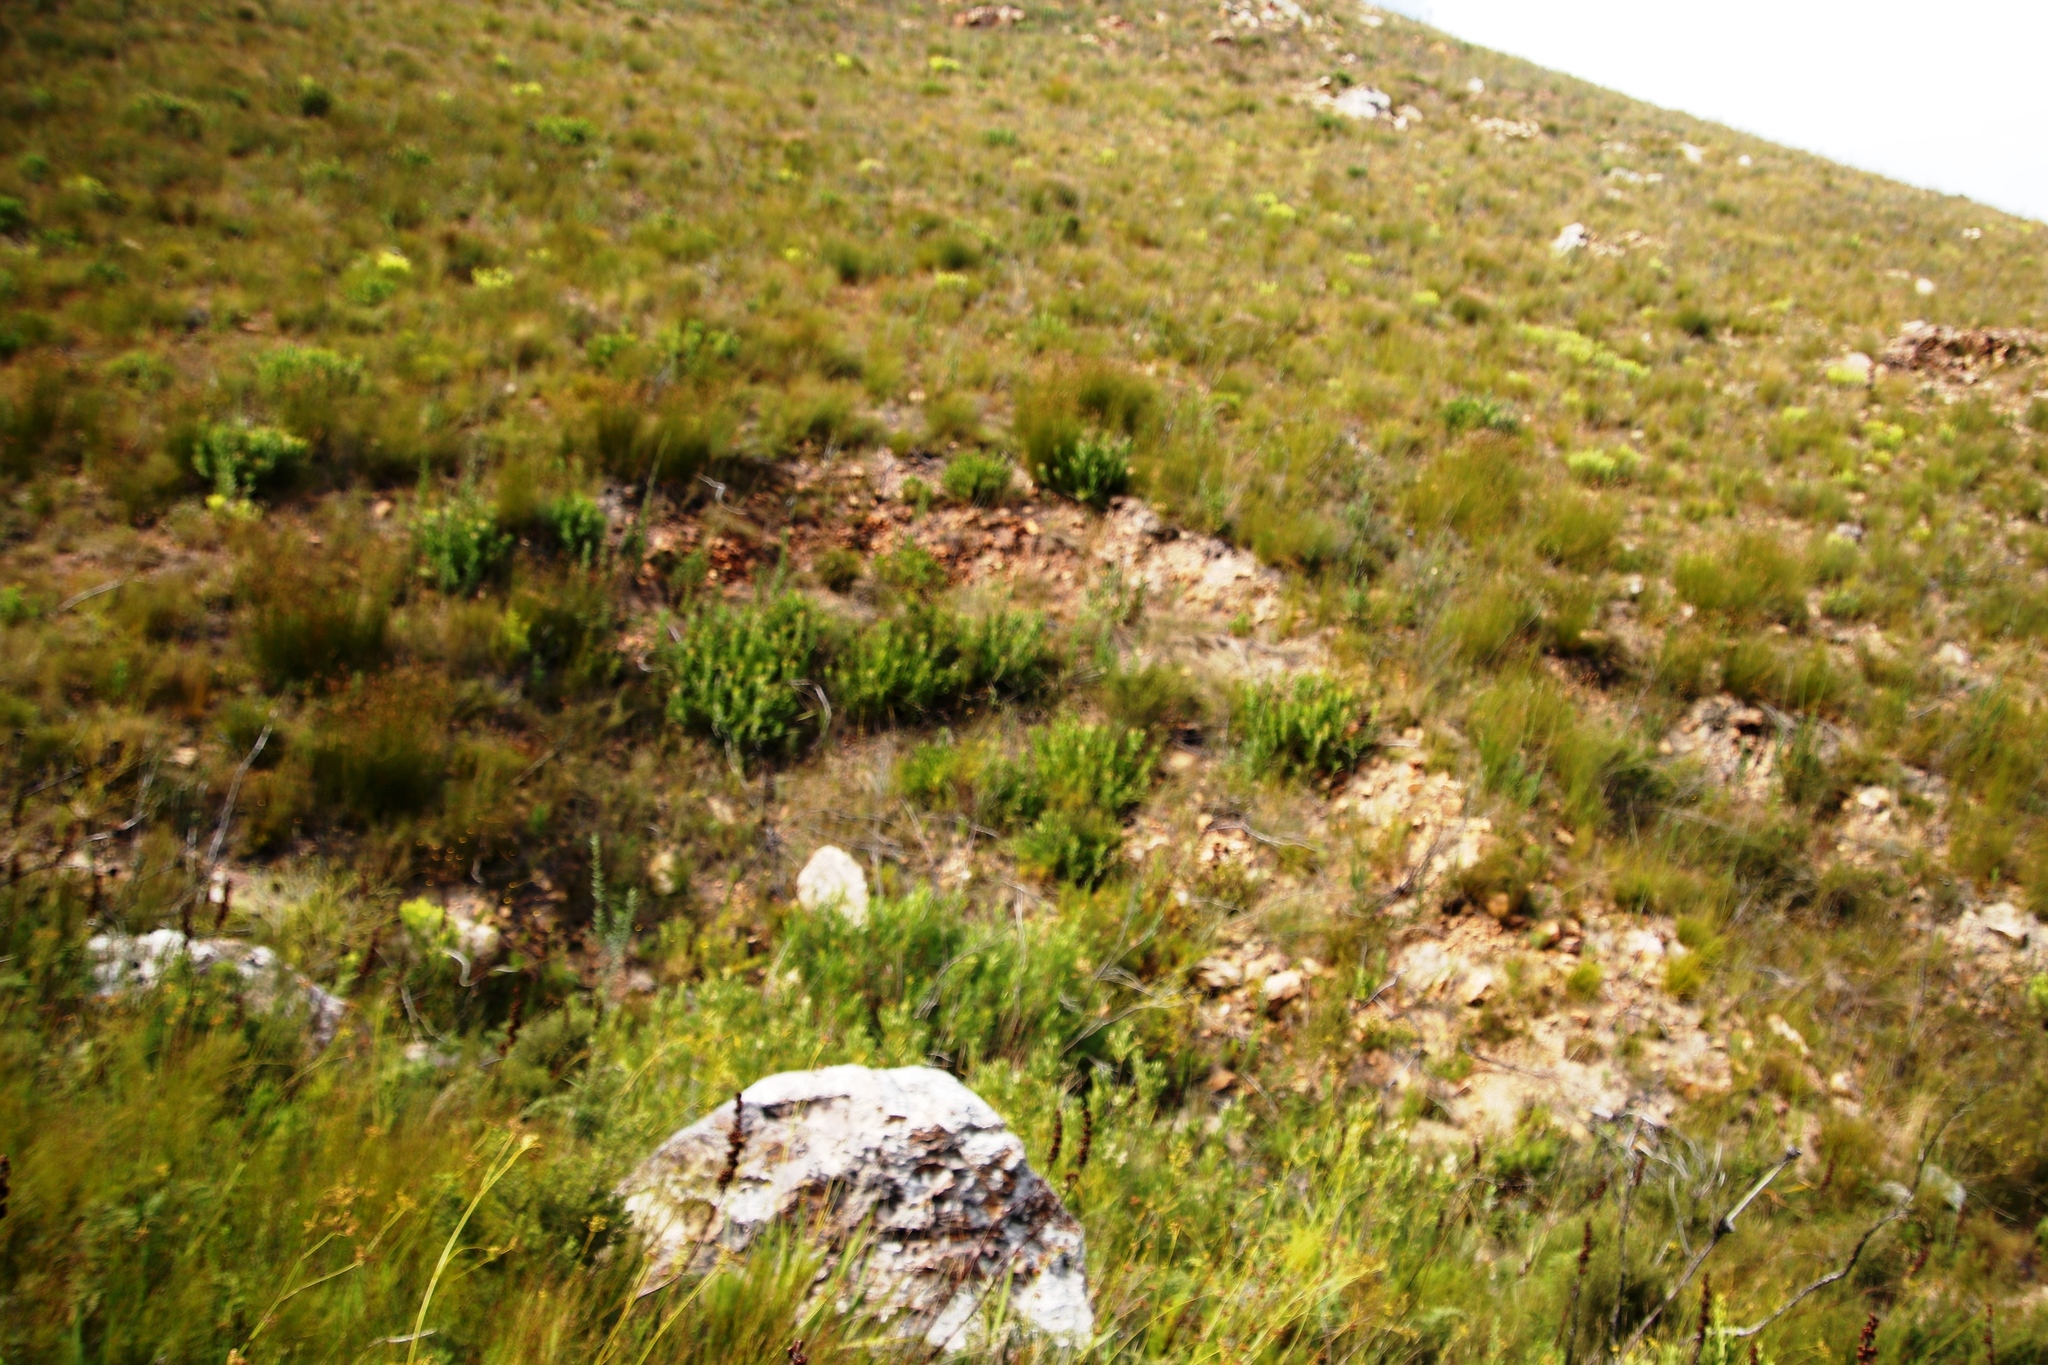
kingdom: Plantae
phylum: Tracheophyta
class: Magnoliopsida
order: Proteales
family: Proteaceae
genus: Leucospermum
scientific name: Leucospermum cuneiforme
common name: Common pincushion
